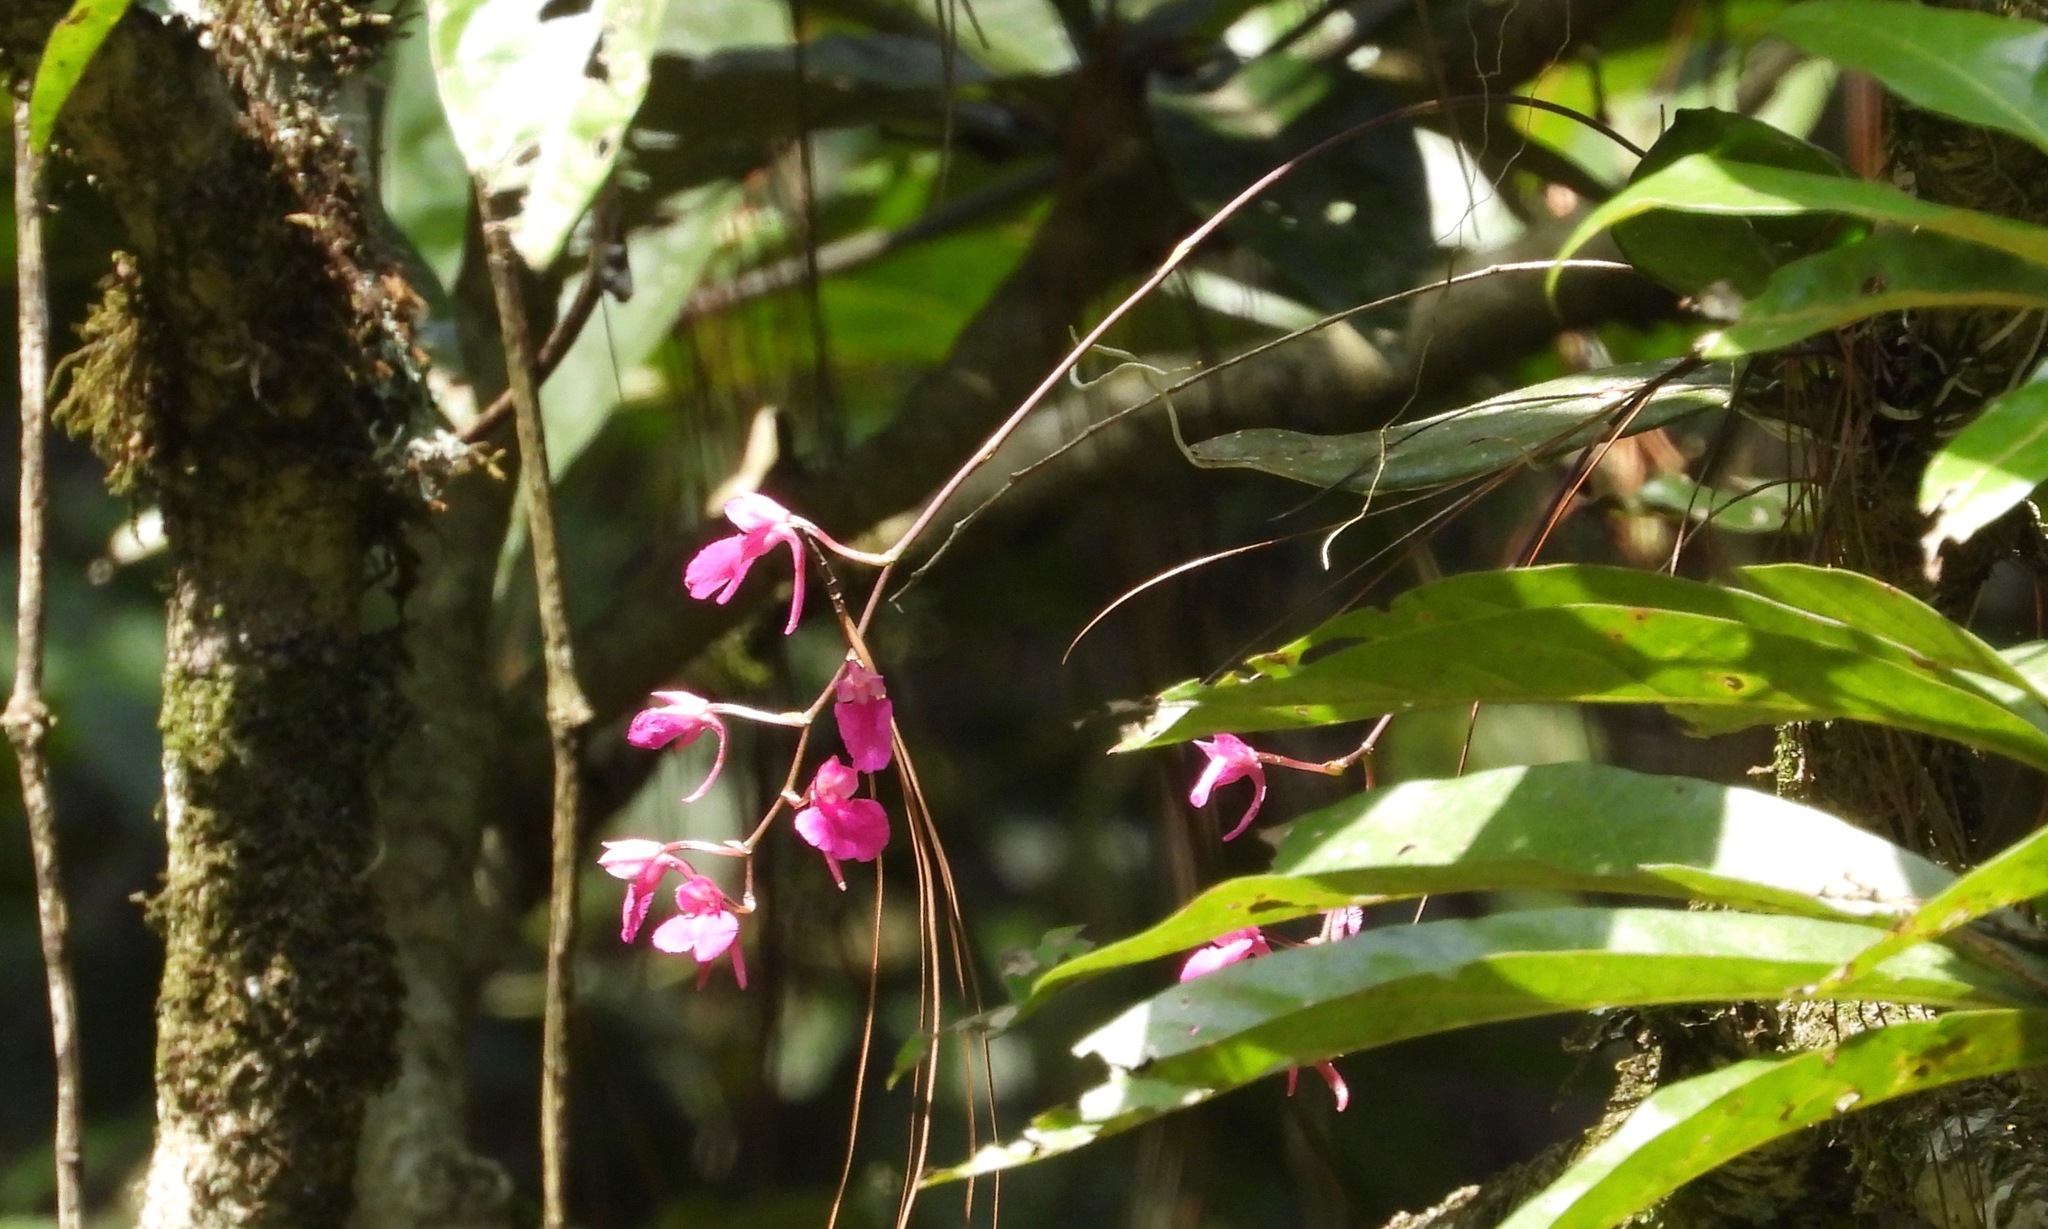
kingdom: Plantae
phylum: Tracheophyta
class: Liliopsida
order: Asparagales
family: Orchidaceae
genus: Comparettia
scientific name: Comparettia falcata
